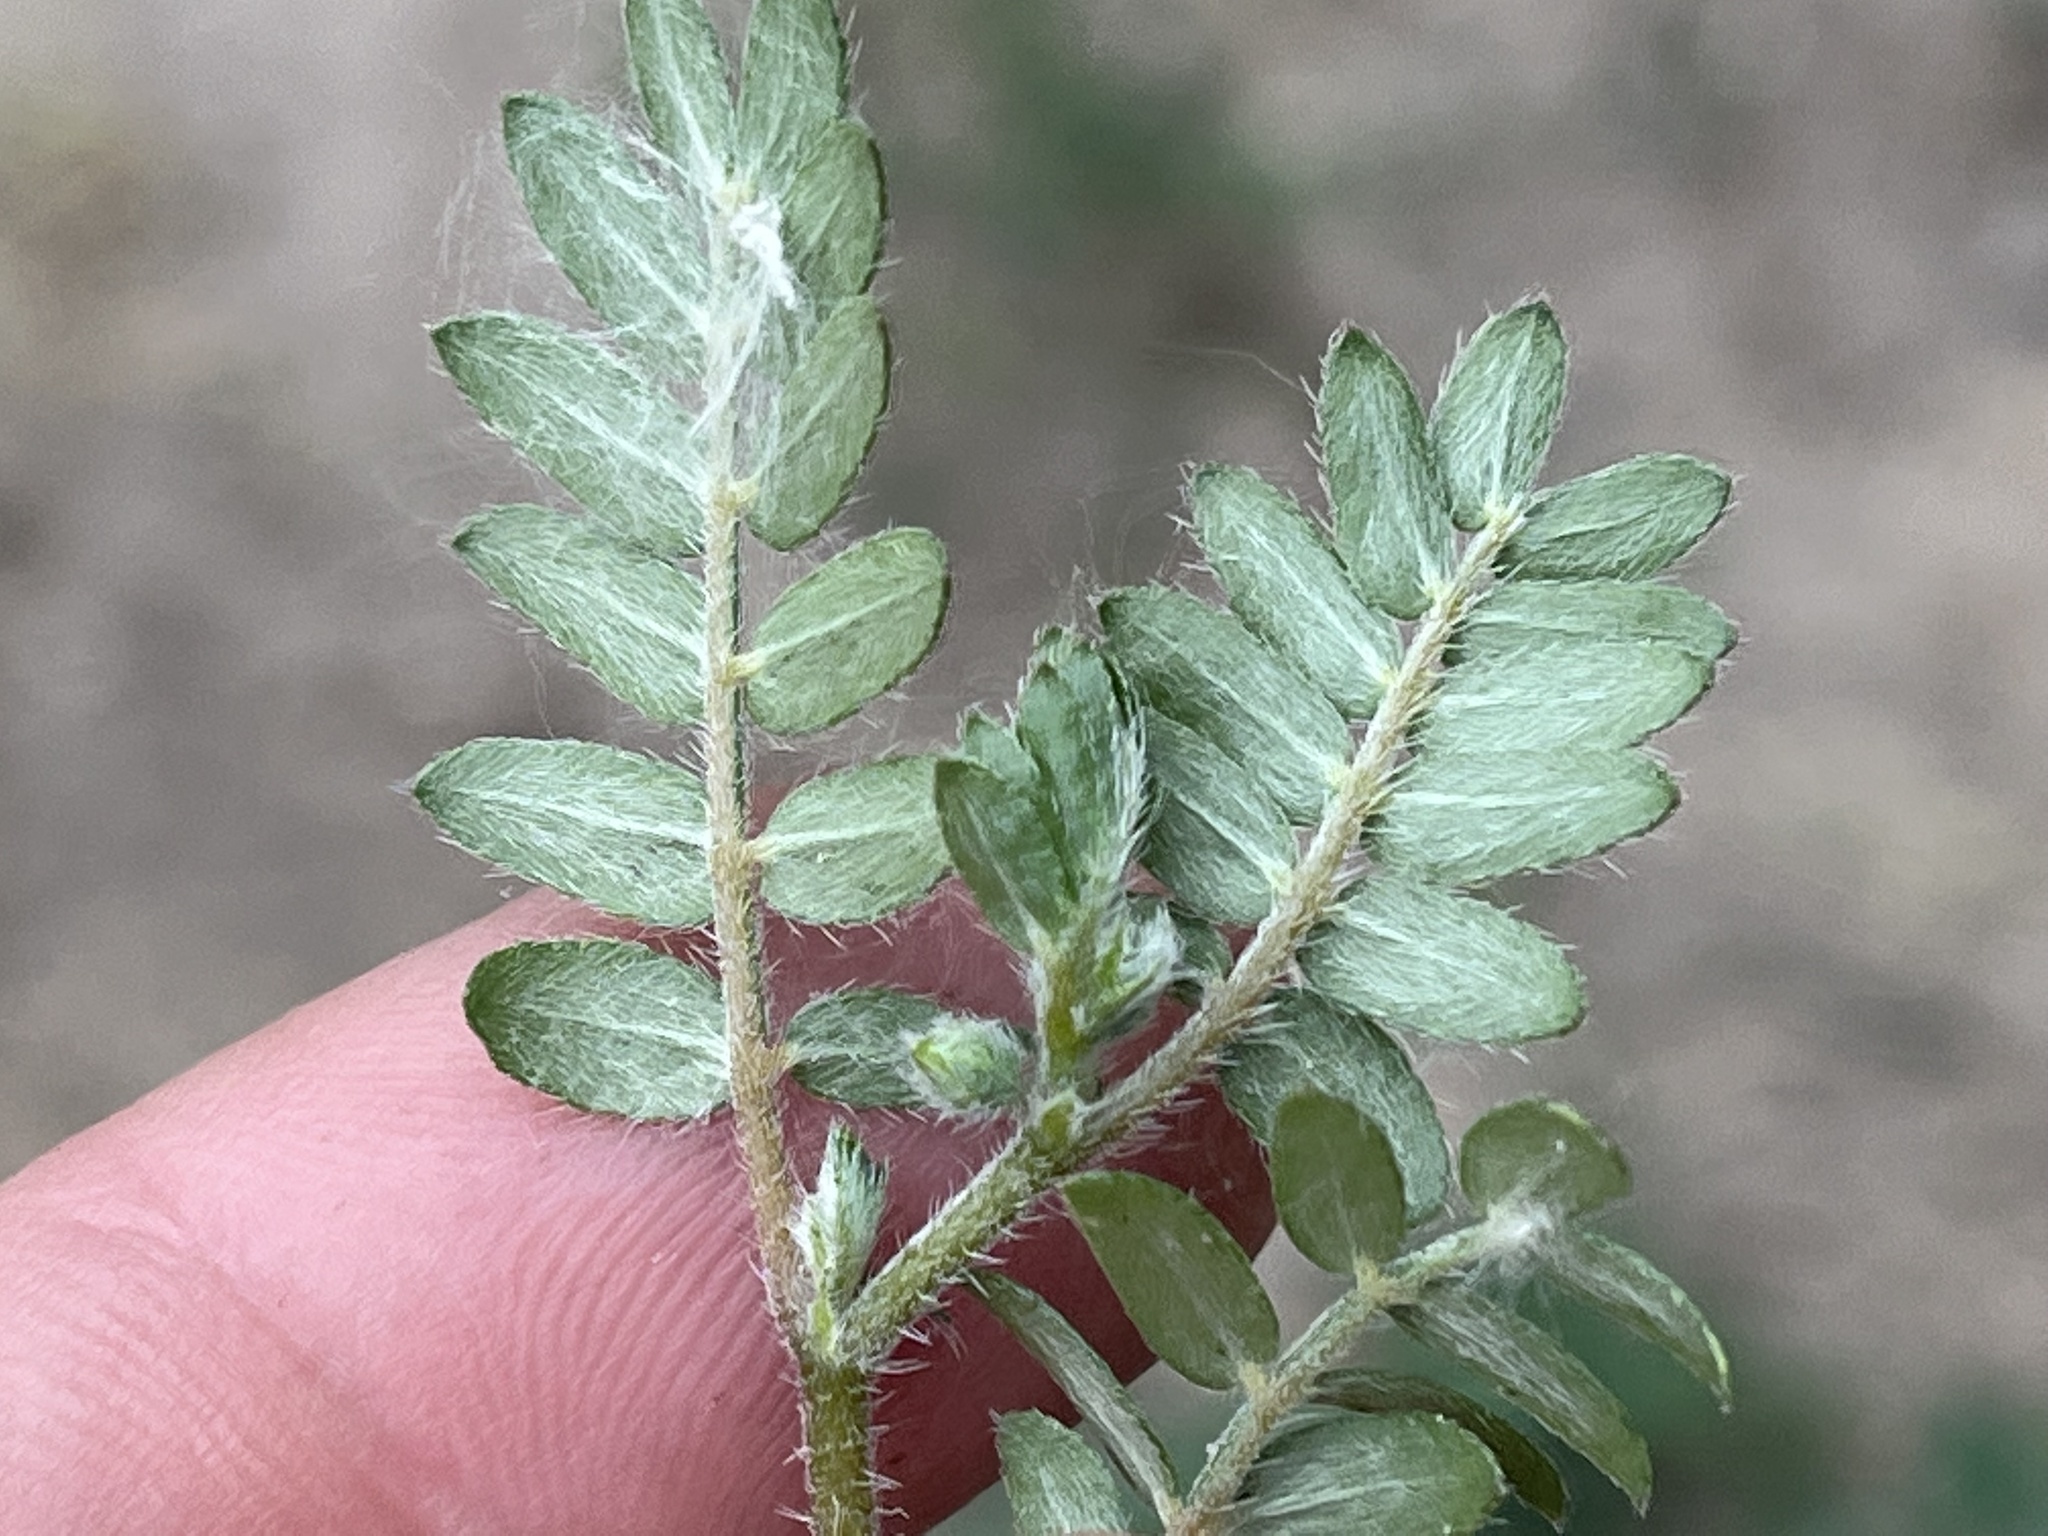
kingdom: Plantae
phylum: Tracheophyta
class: Magnoliopsida
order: Zygophyllales
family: Zygophyllaceae
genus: Tribulus
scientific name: Tribulus terrestris
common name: Puncturevine
